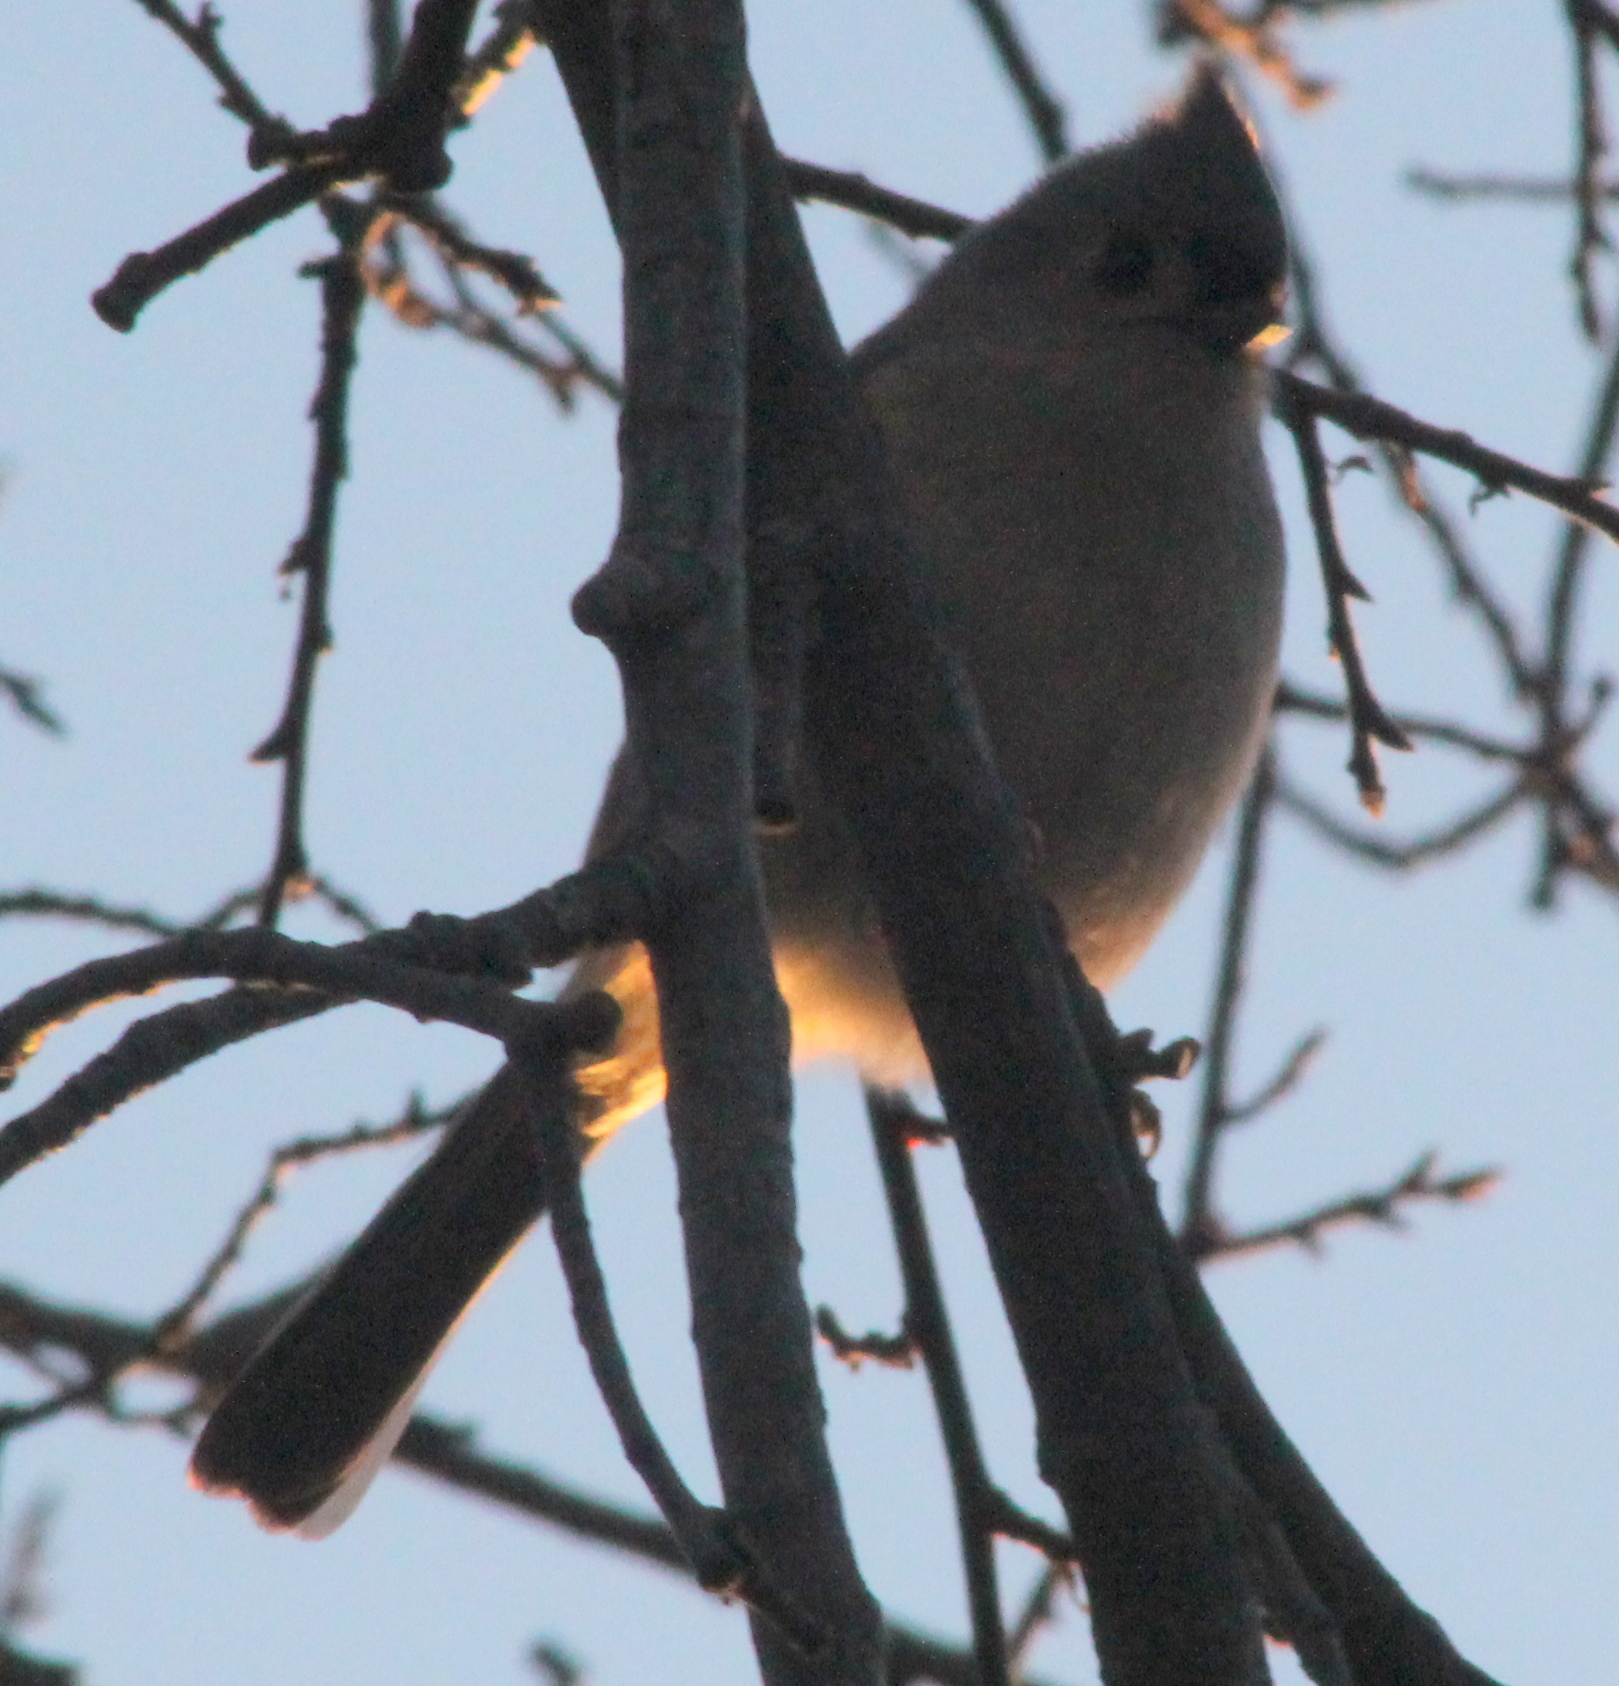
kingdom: Animalia
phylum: Chordata
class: Aves
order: Passeriformes
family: Paridae
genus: Baeolophus
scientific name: Baeolophus bicolor
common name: Tufted titmouse
